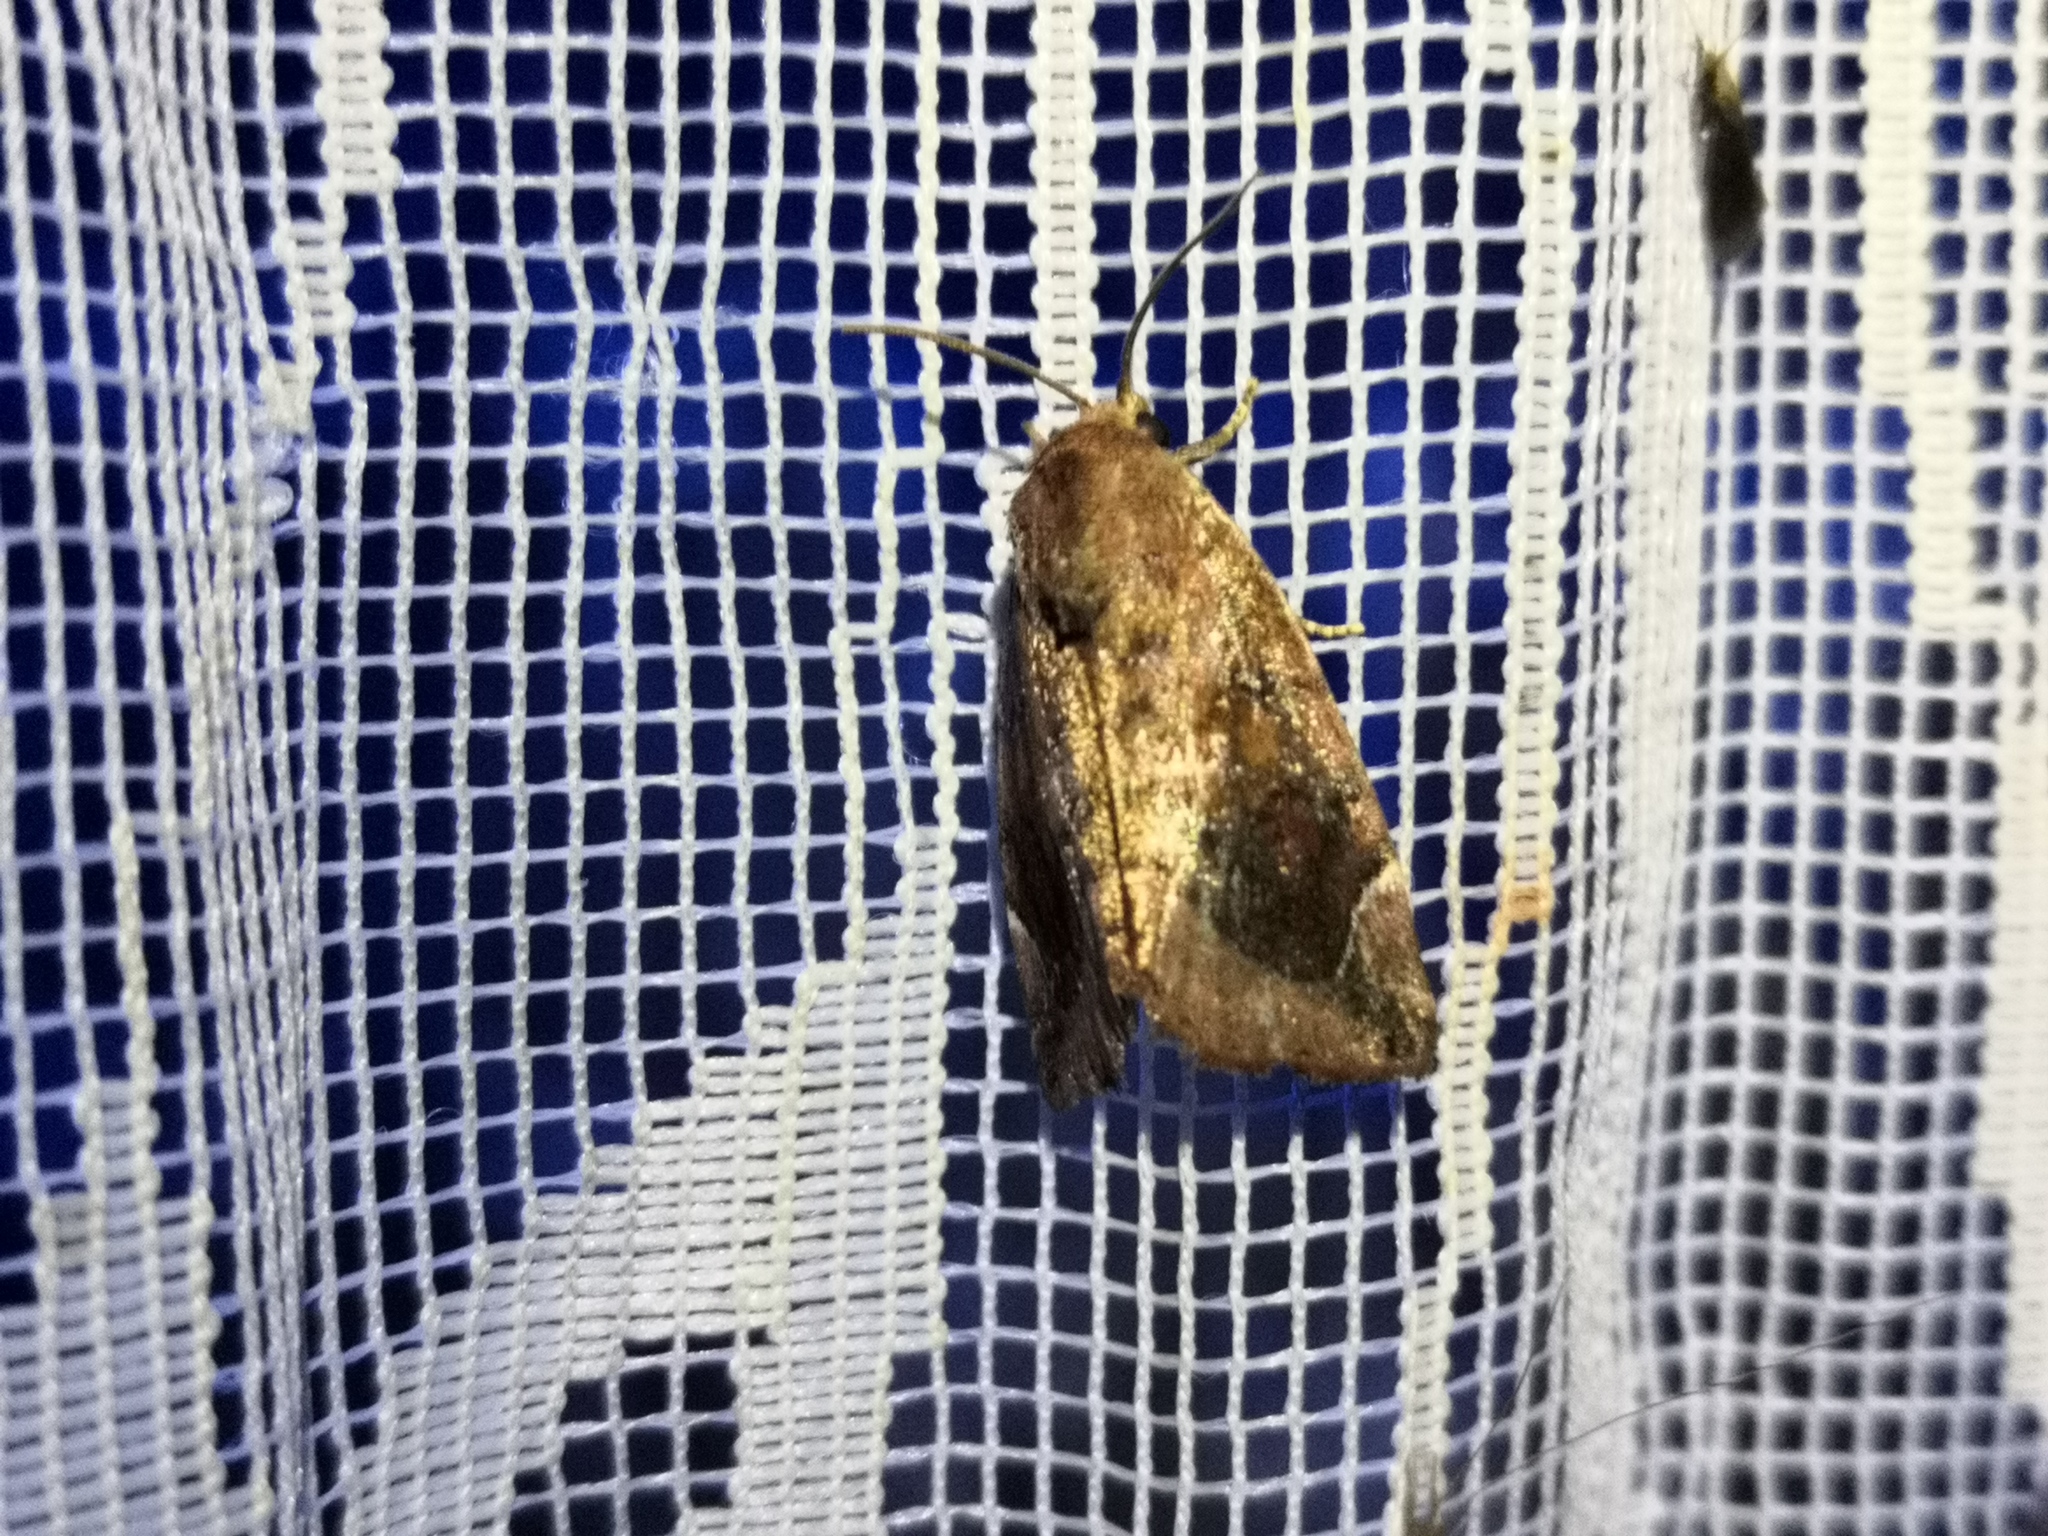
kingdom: Animalia
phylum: Arthropoda
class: Insecta
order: Lepidoptera
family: Noctuidae
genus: Cosmia
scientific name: Cosmia pyralina
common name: Lunar-spotted pinion
